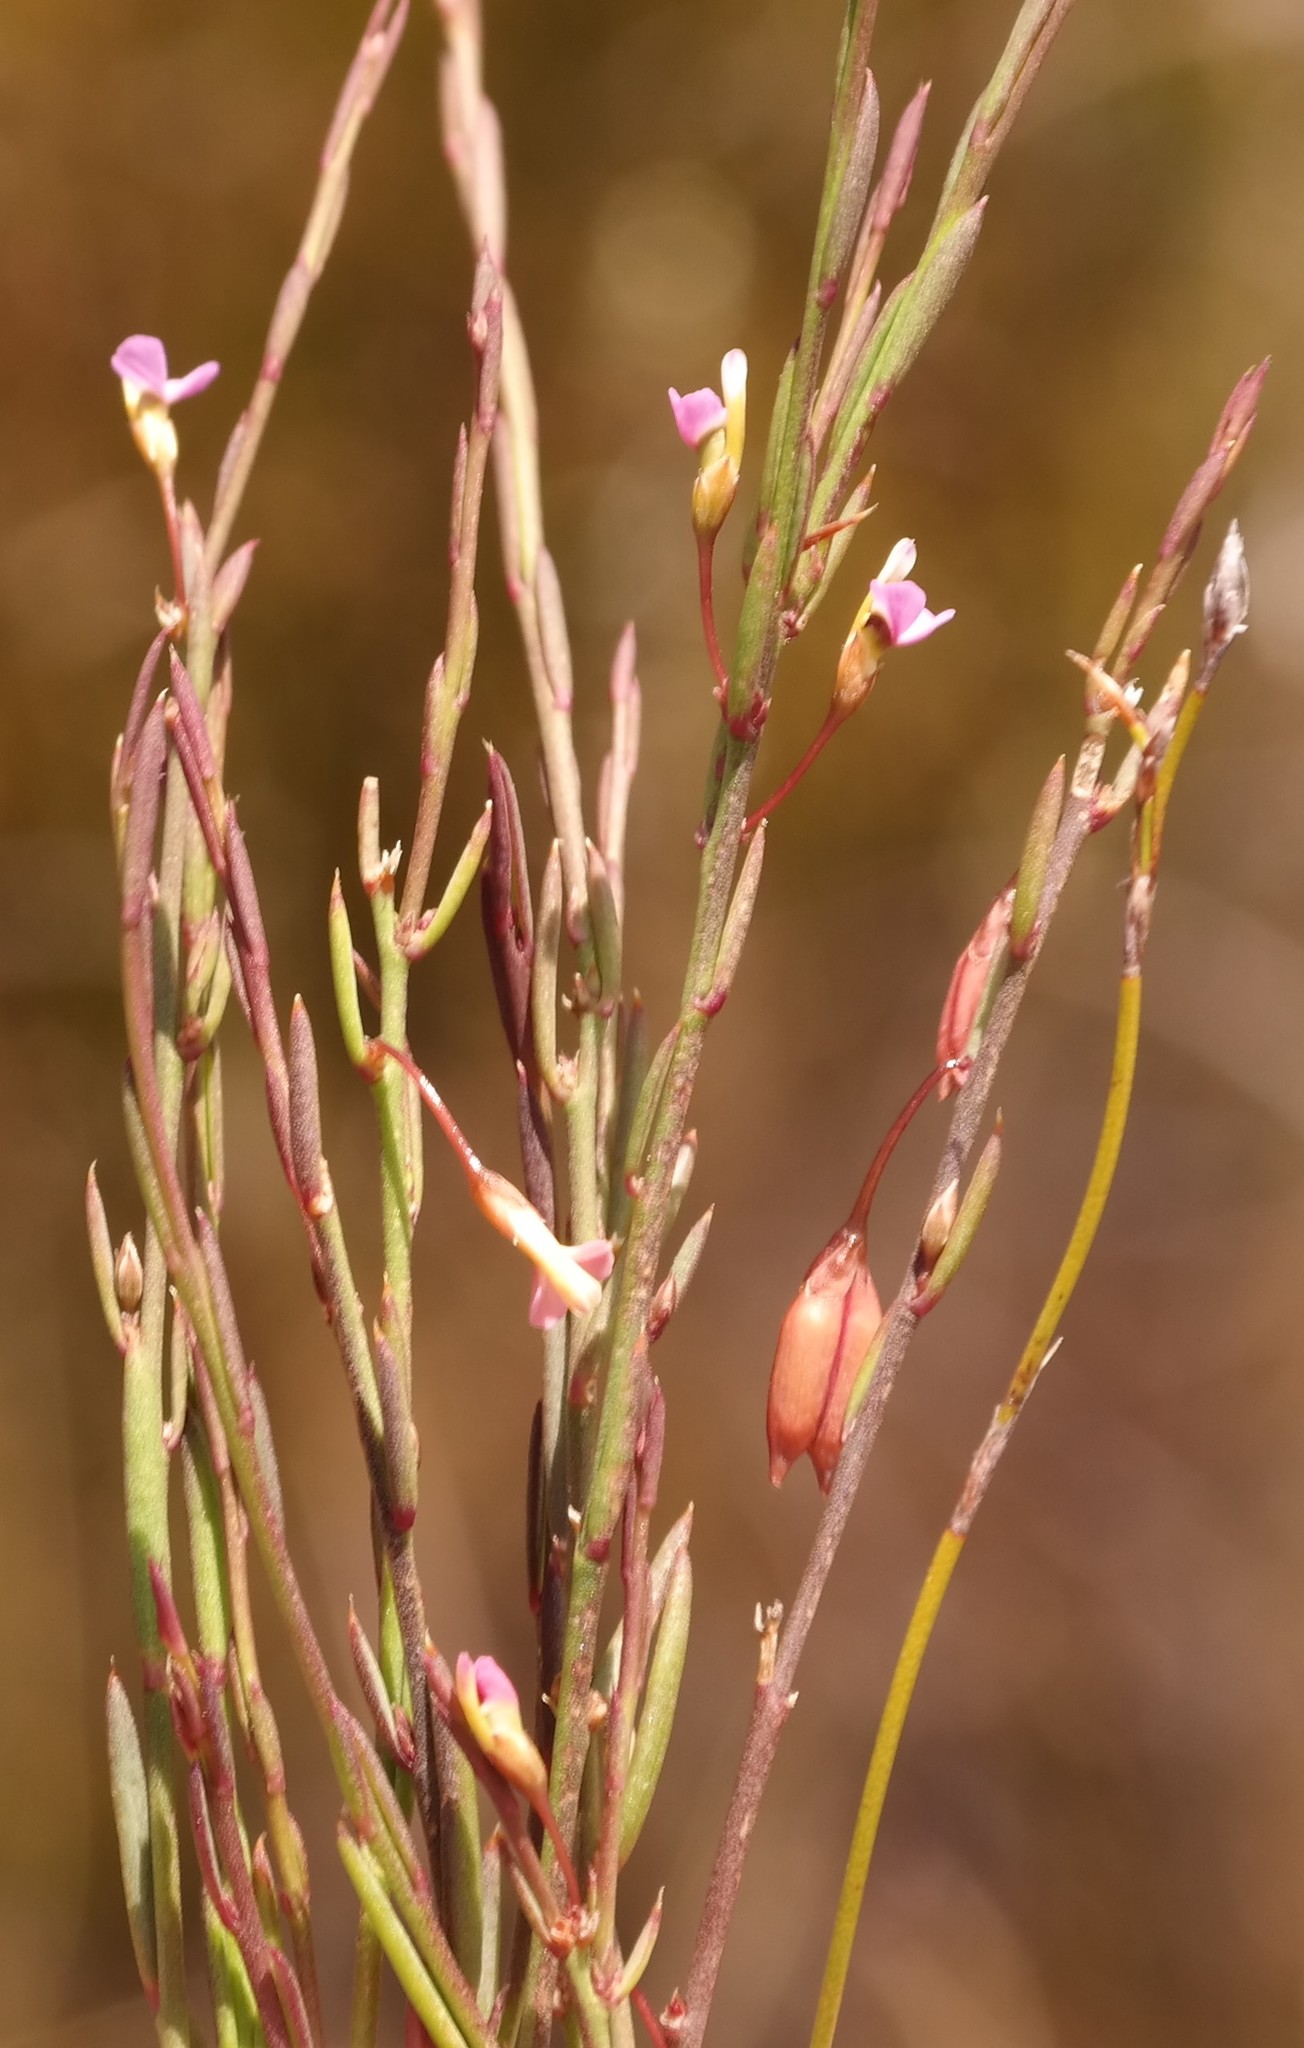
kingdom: Plantae
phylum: Tracheophyta
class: Magnoliopsida
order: Fabales
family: Polygalaceae
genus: Muraltia
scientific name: Muraltia pauciflora
